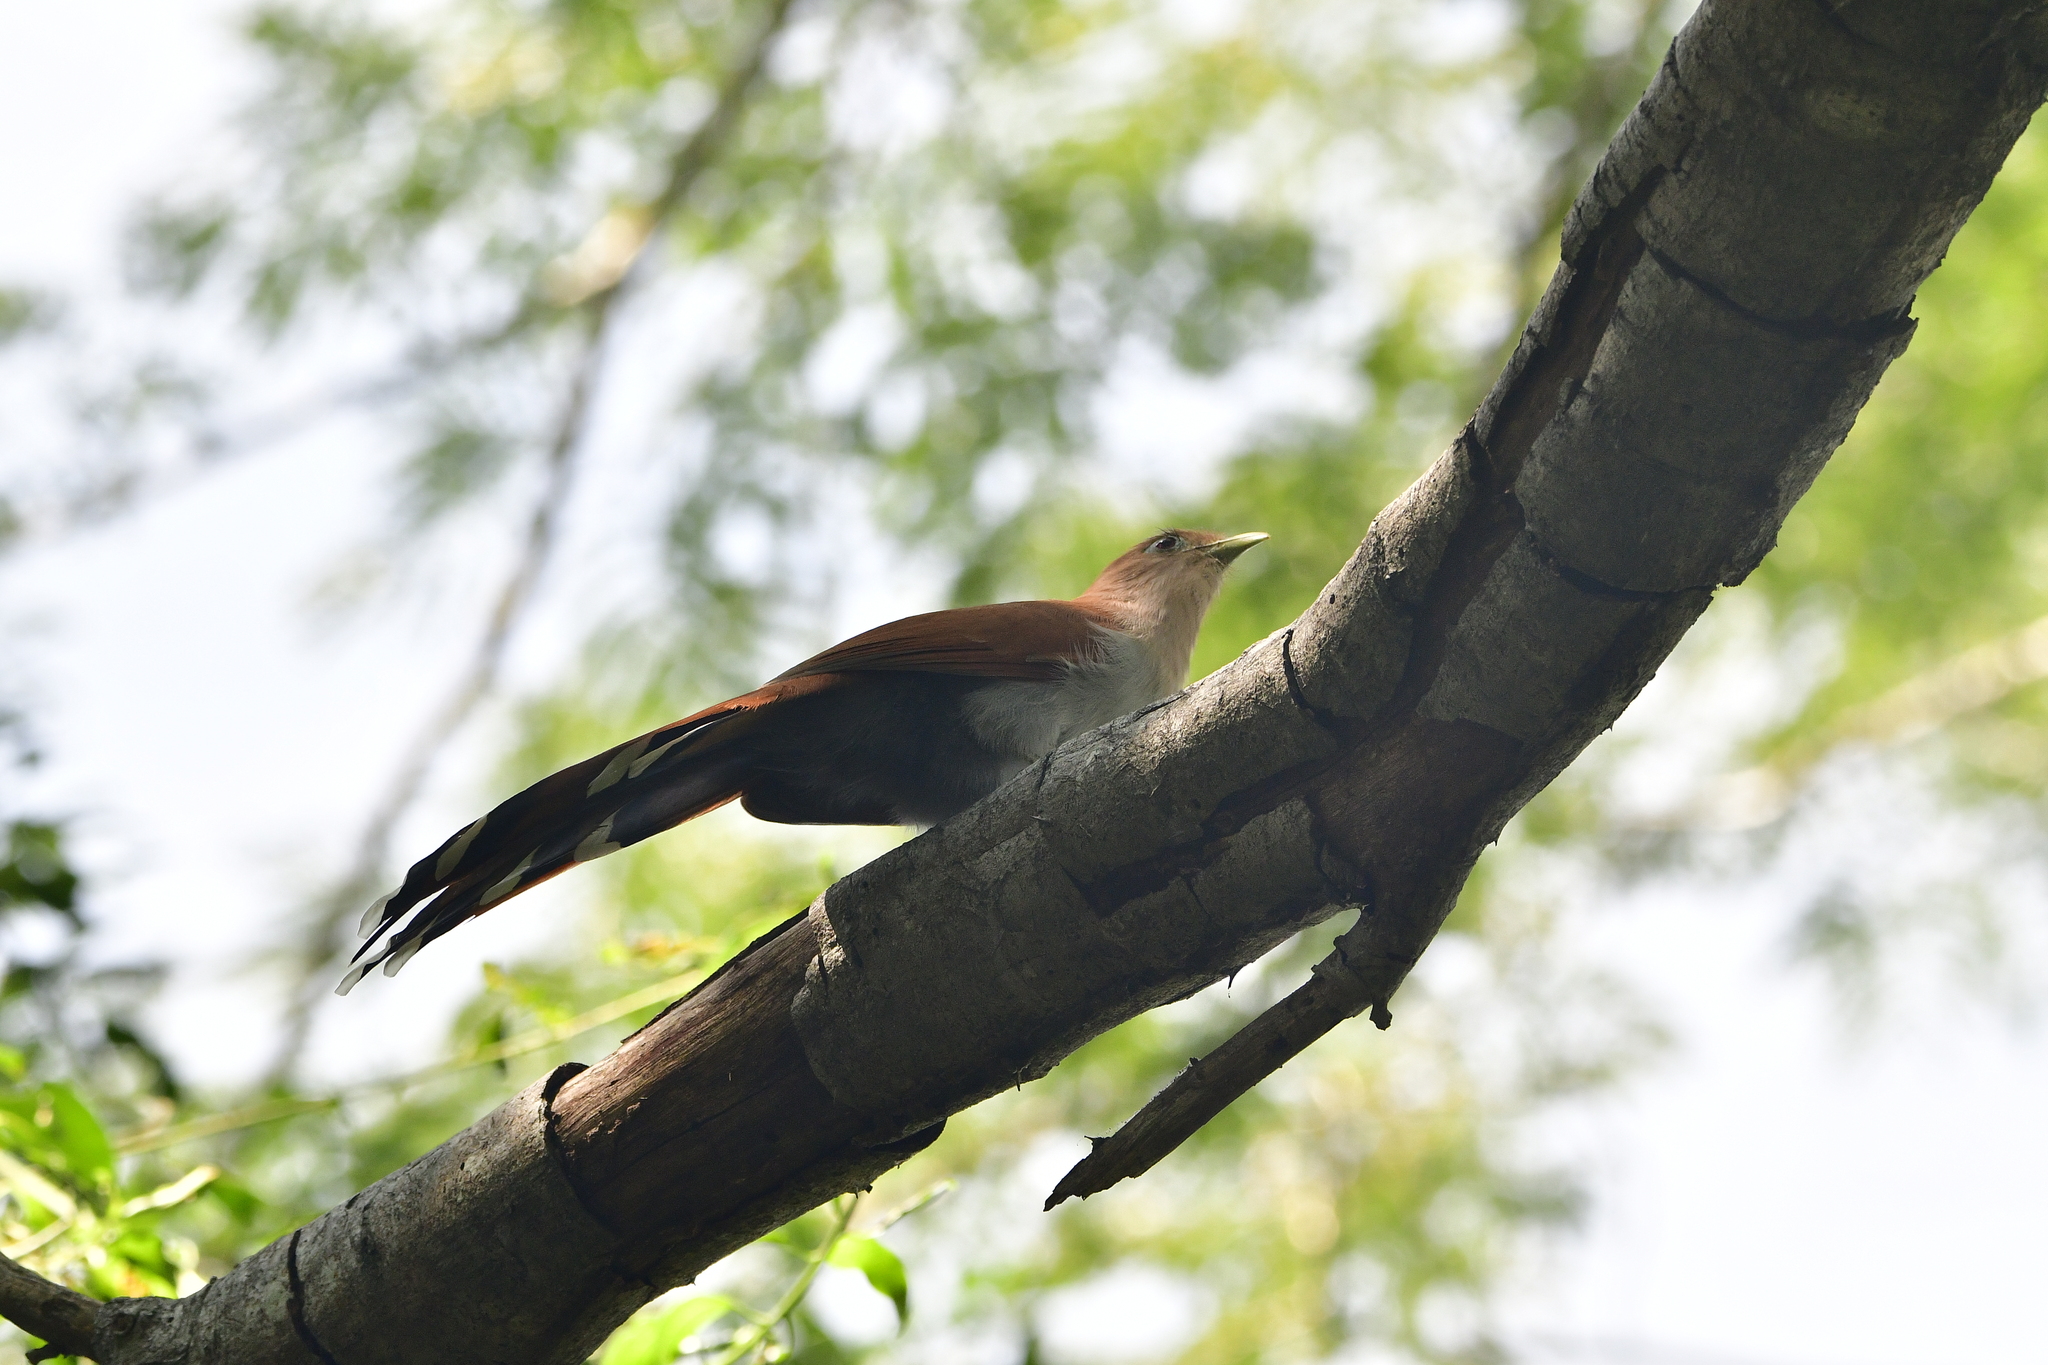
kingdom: Animalia
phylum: Chordata
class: Aves
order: Cuculiformes
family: Cuculidae
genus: Piaya
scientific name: Piaya cayana
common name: Squirrel cuckoo
